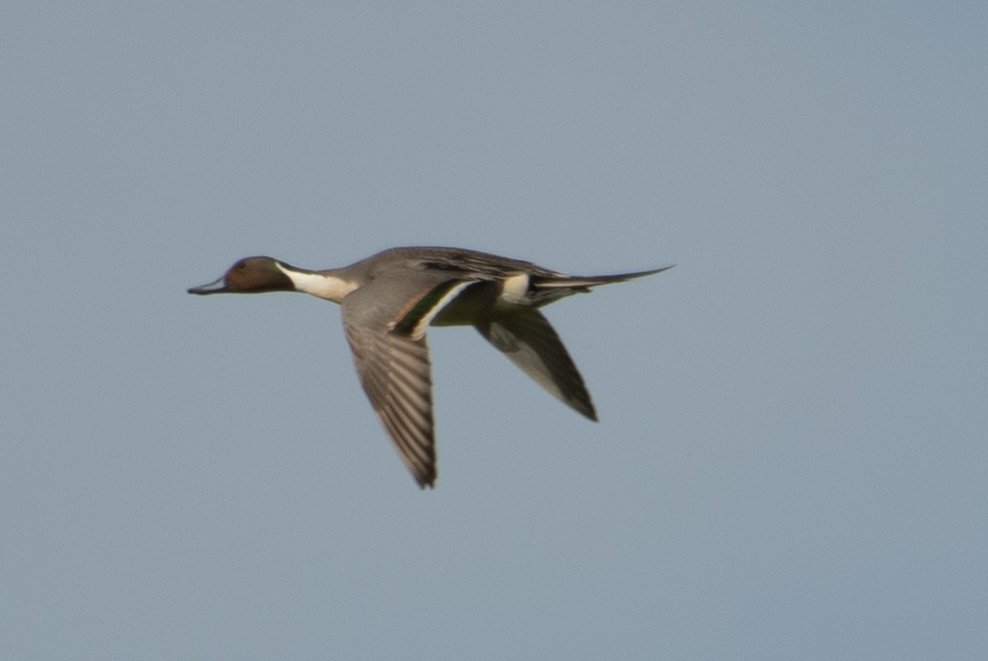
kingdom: Animalia
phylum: Chordata
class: Aves
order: Anseriformes
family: Anatidae
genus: Anas
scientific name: Anas acuta
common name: Northern pintail
